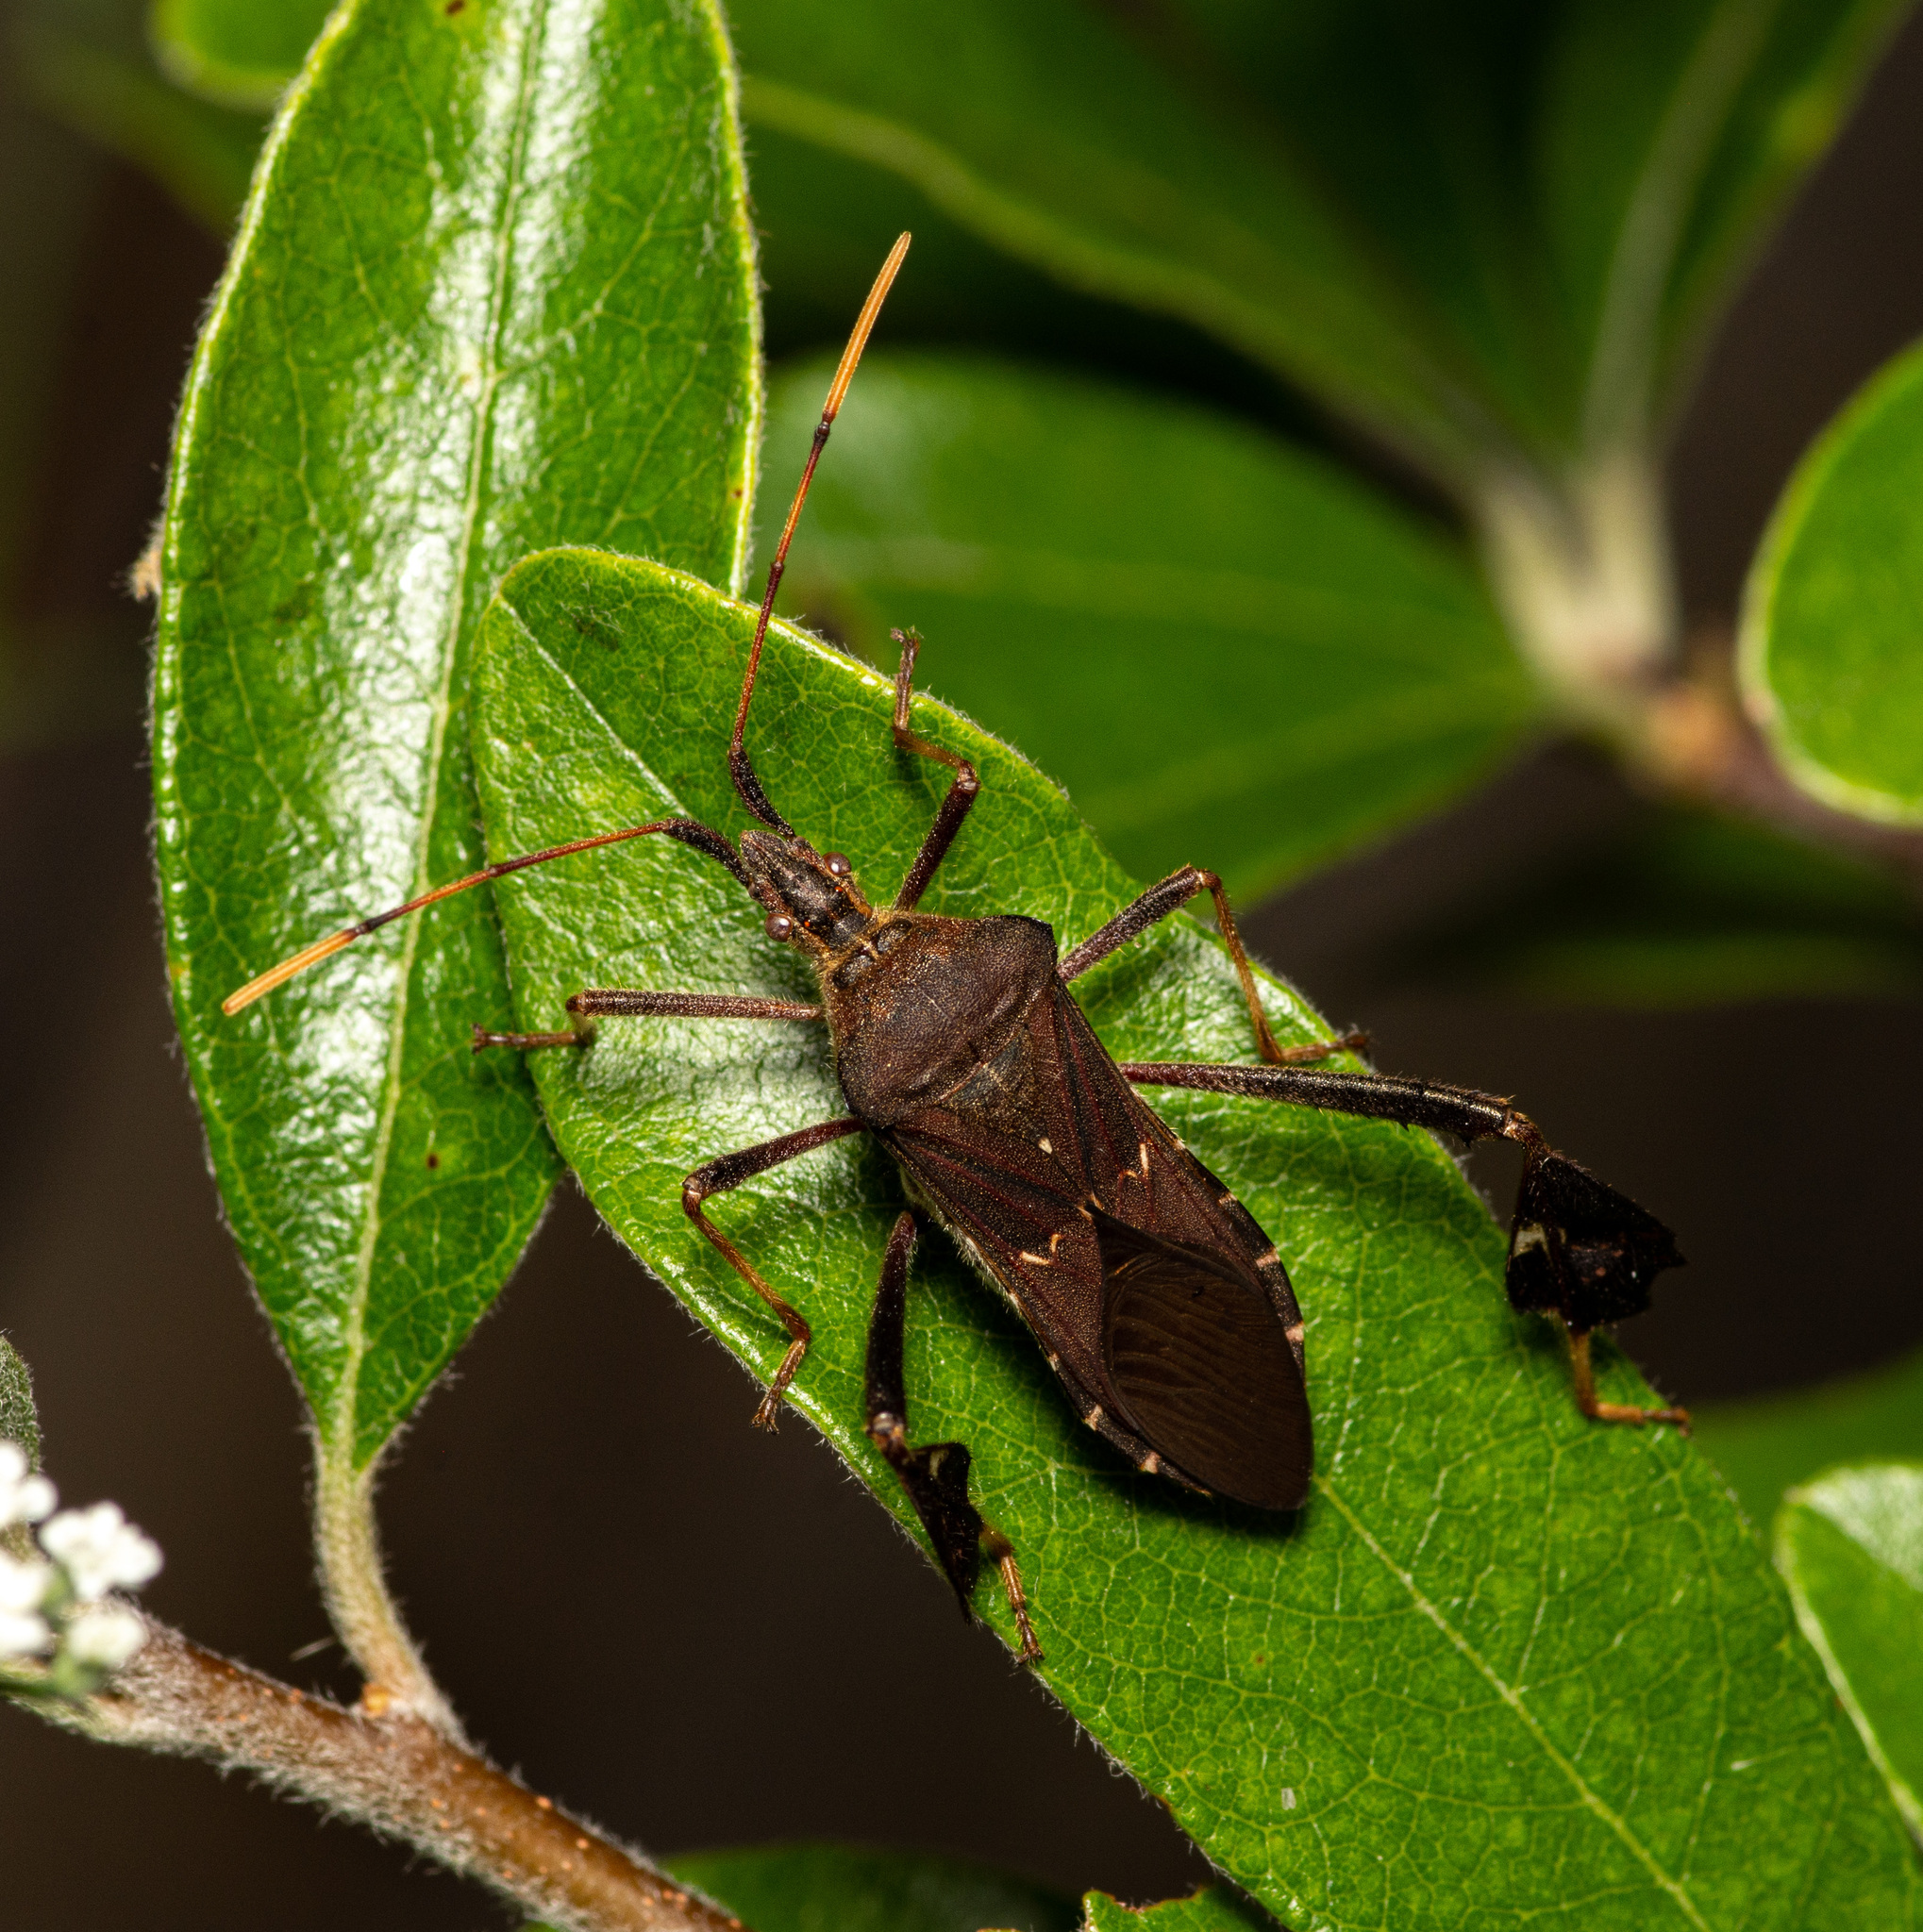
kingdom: Animalia
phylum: Arthropoda
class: Insecta
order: Hemiptera
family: Coreidae
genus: Leptoglossus
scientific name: Leptoglossus oppositus
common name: Northern leaf-footed bug
